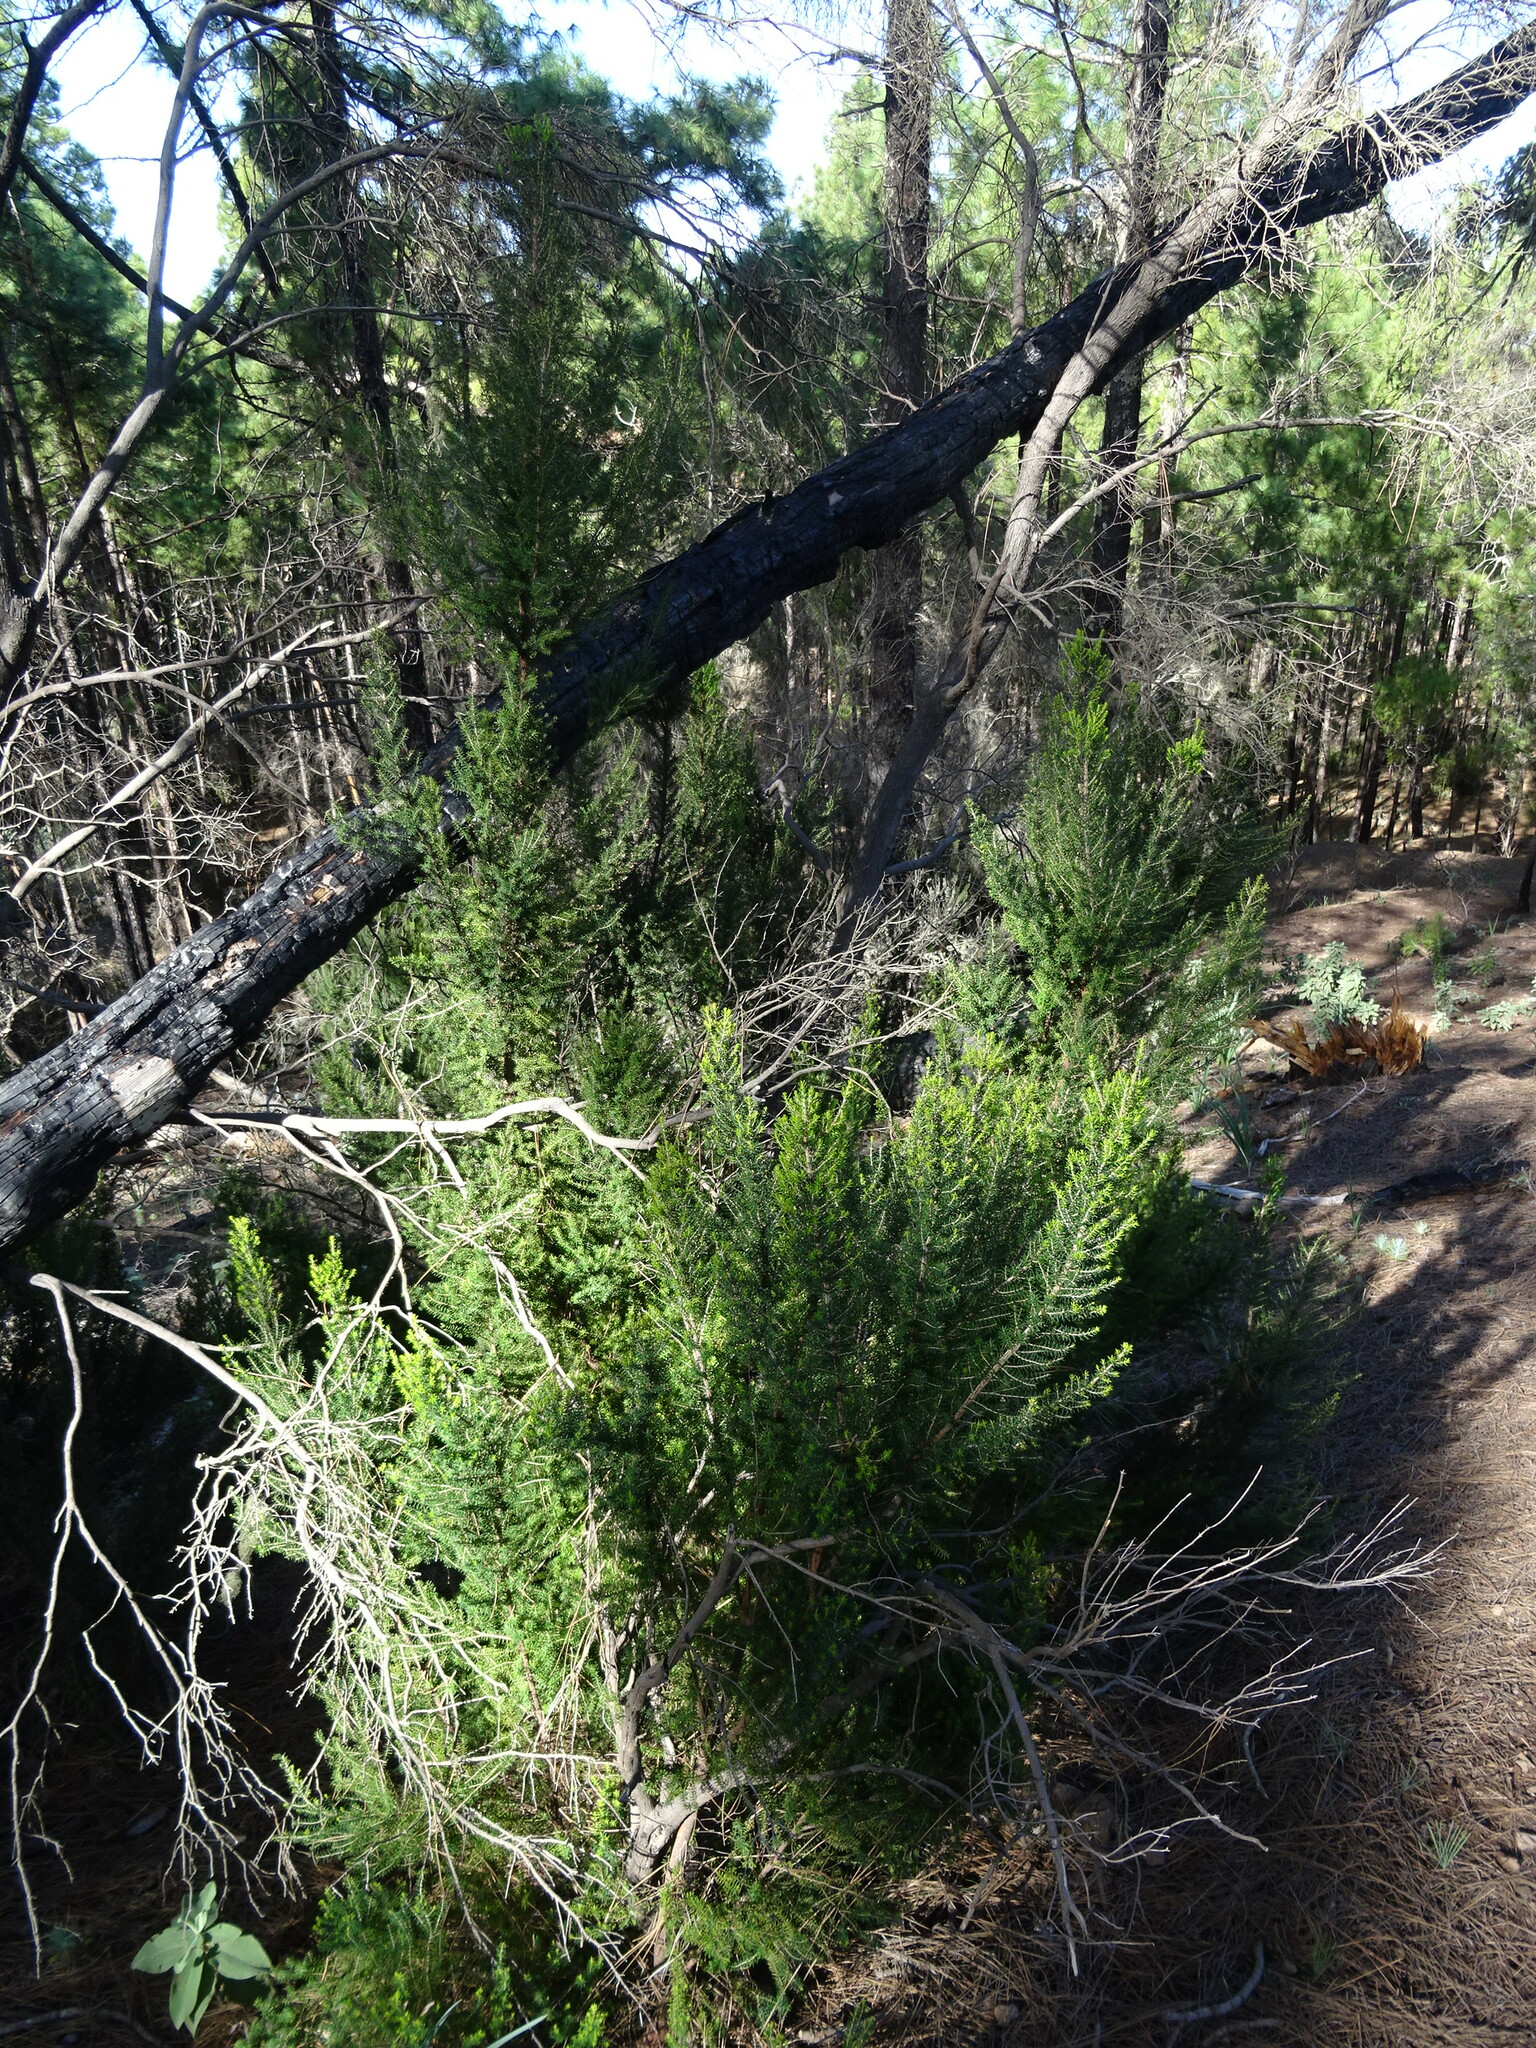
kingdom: Plantae
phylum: Tracheophyta
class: Magnoliopsida
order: Ericales
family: Ericaceae
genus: Erica
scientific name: Erica canariensis
